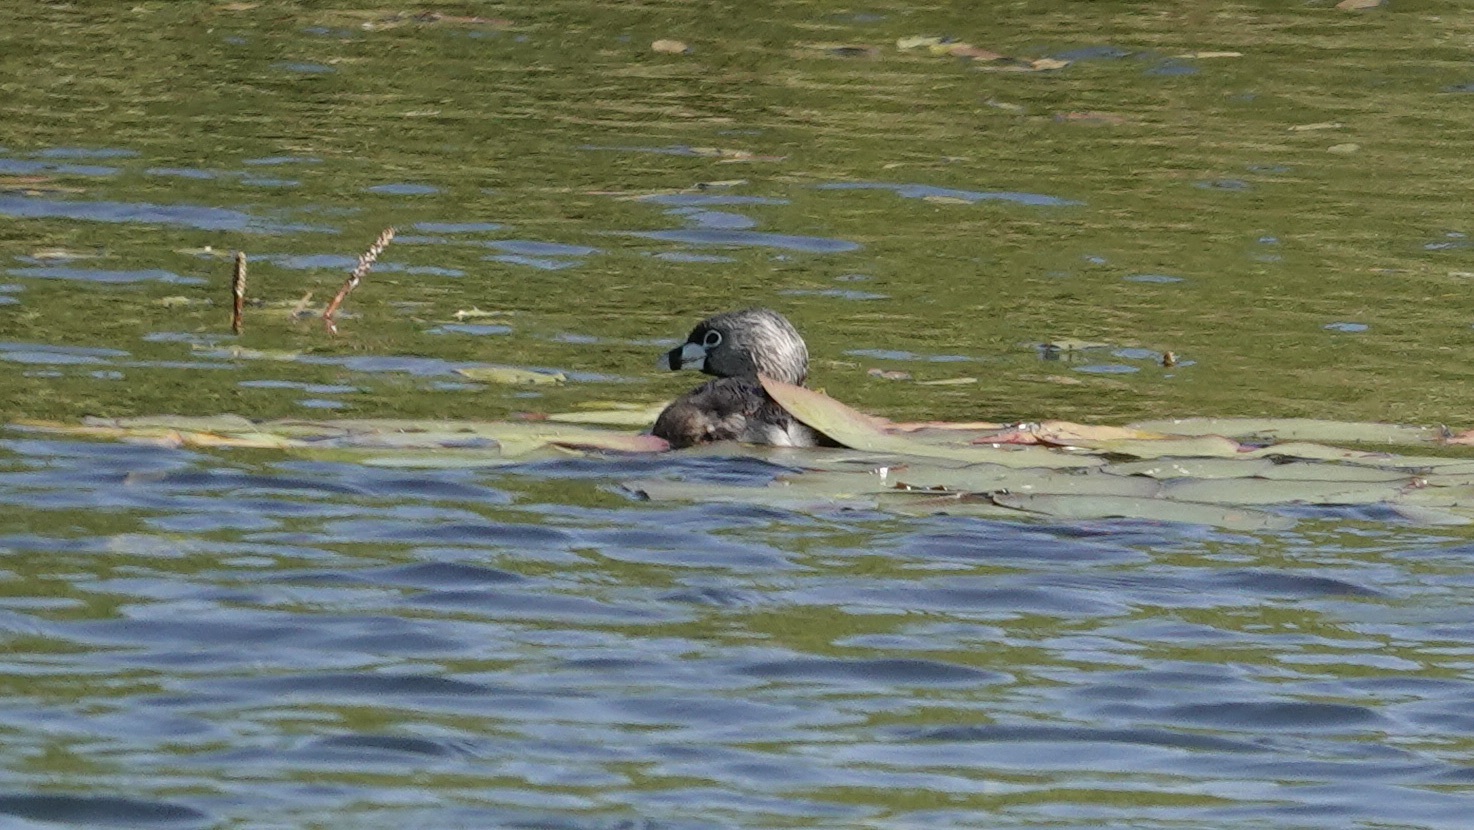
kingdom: Animalia
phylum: Chordata
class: Aves
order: Podicipediformes
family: Podicipedidae
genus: Podilymbus
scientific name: Podilymbus podiceps
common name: Pied-billed grebe
